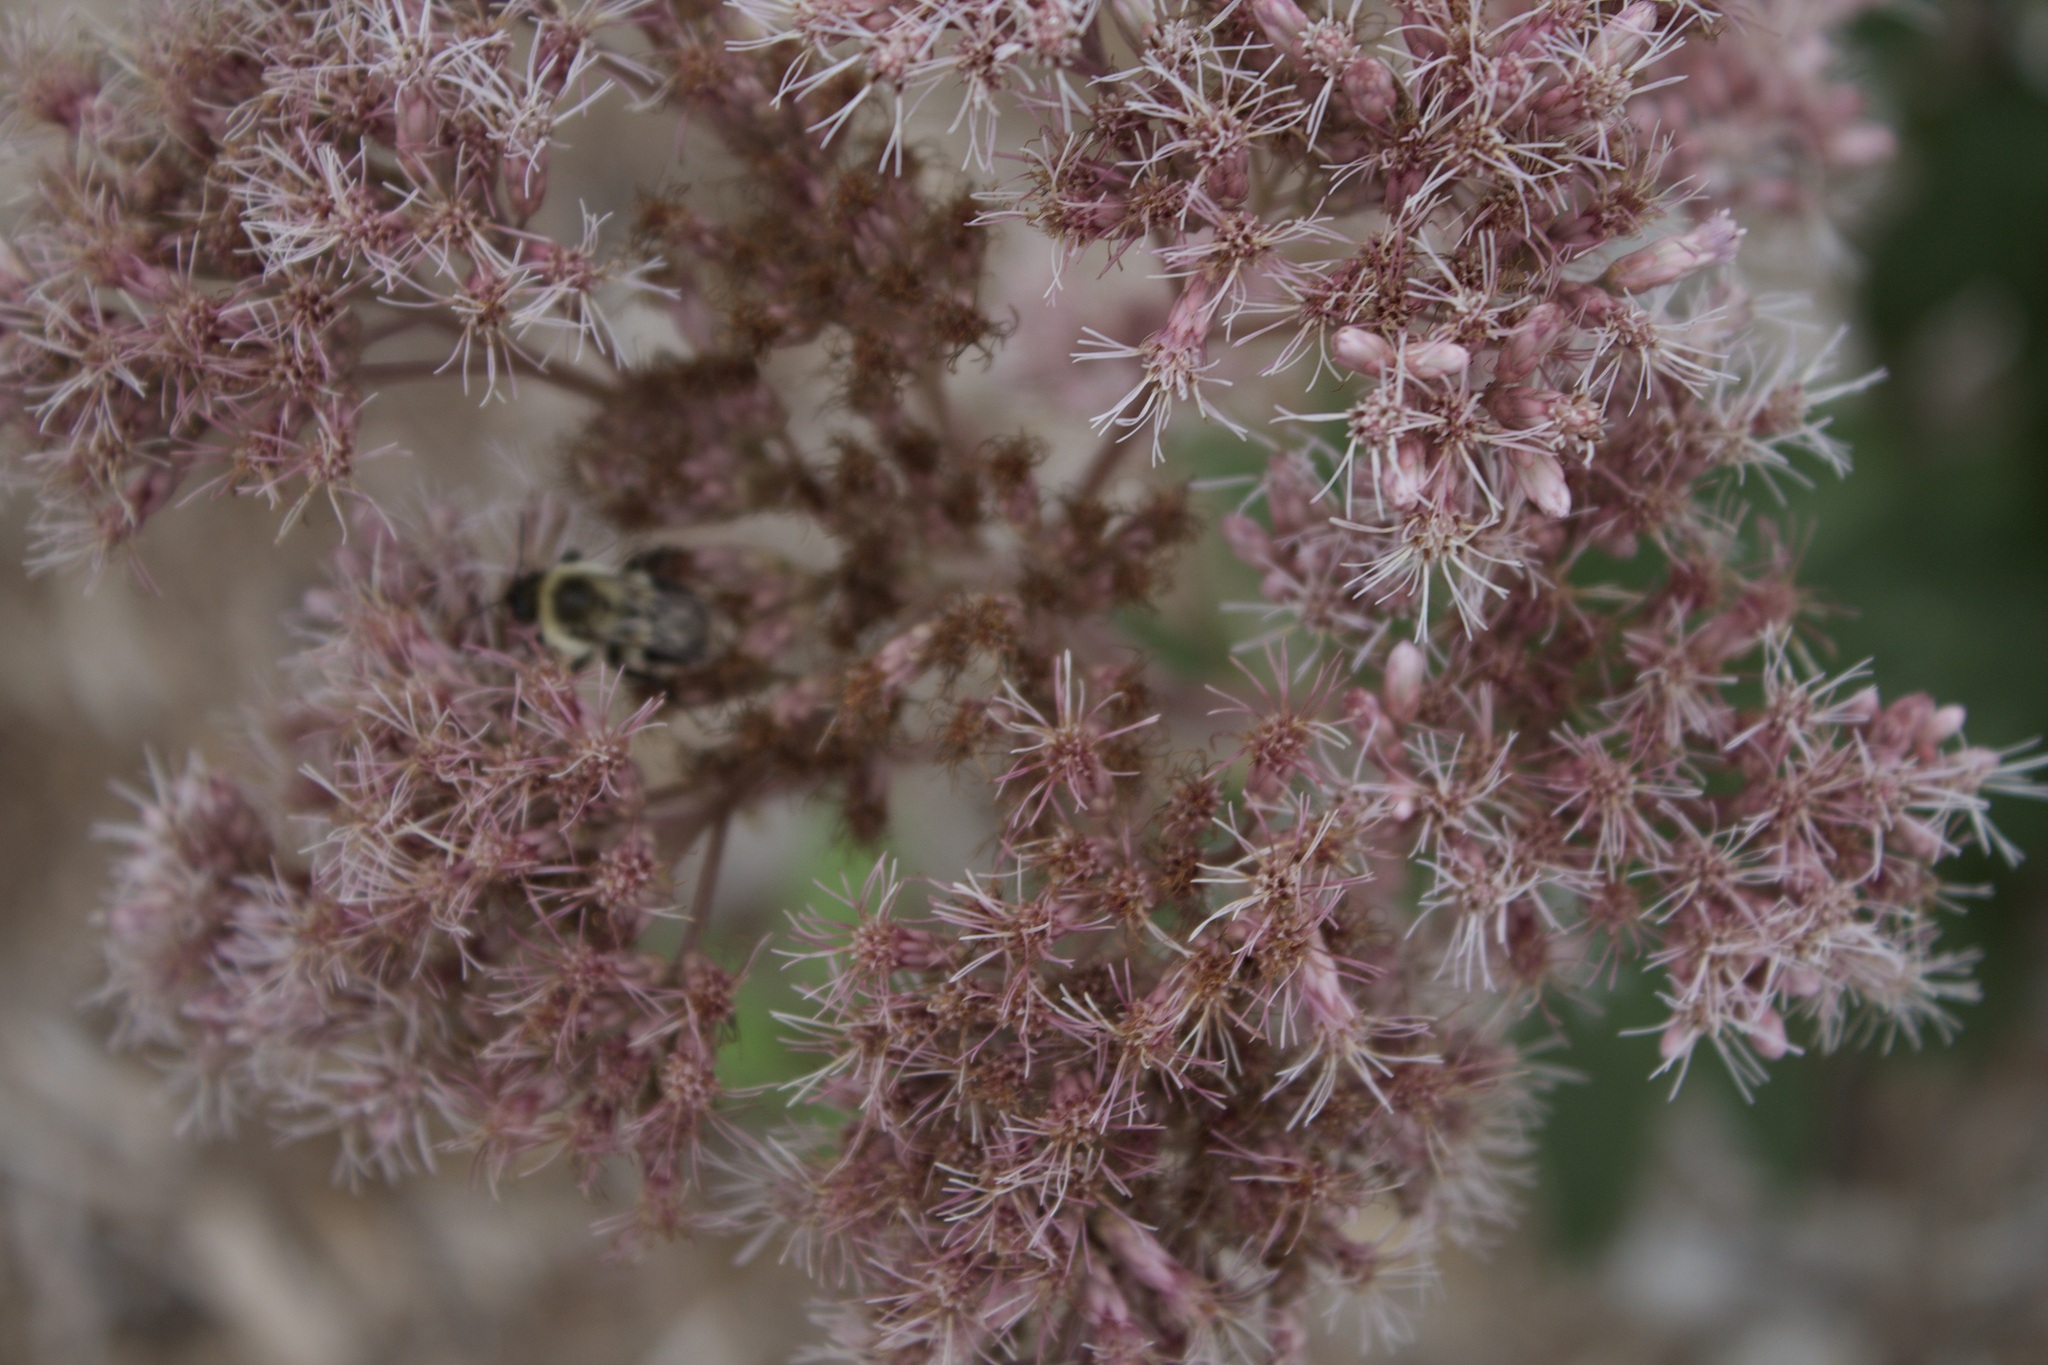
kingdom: Animalia
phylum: Arthropoda
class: Insecta
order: Hymenoptera
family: Apidae
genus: Bombus
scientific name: Bombus impatiens
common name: Common eastern bumble bee
